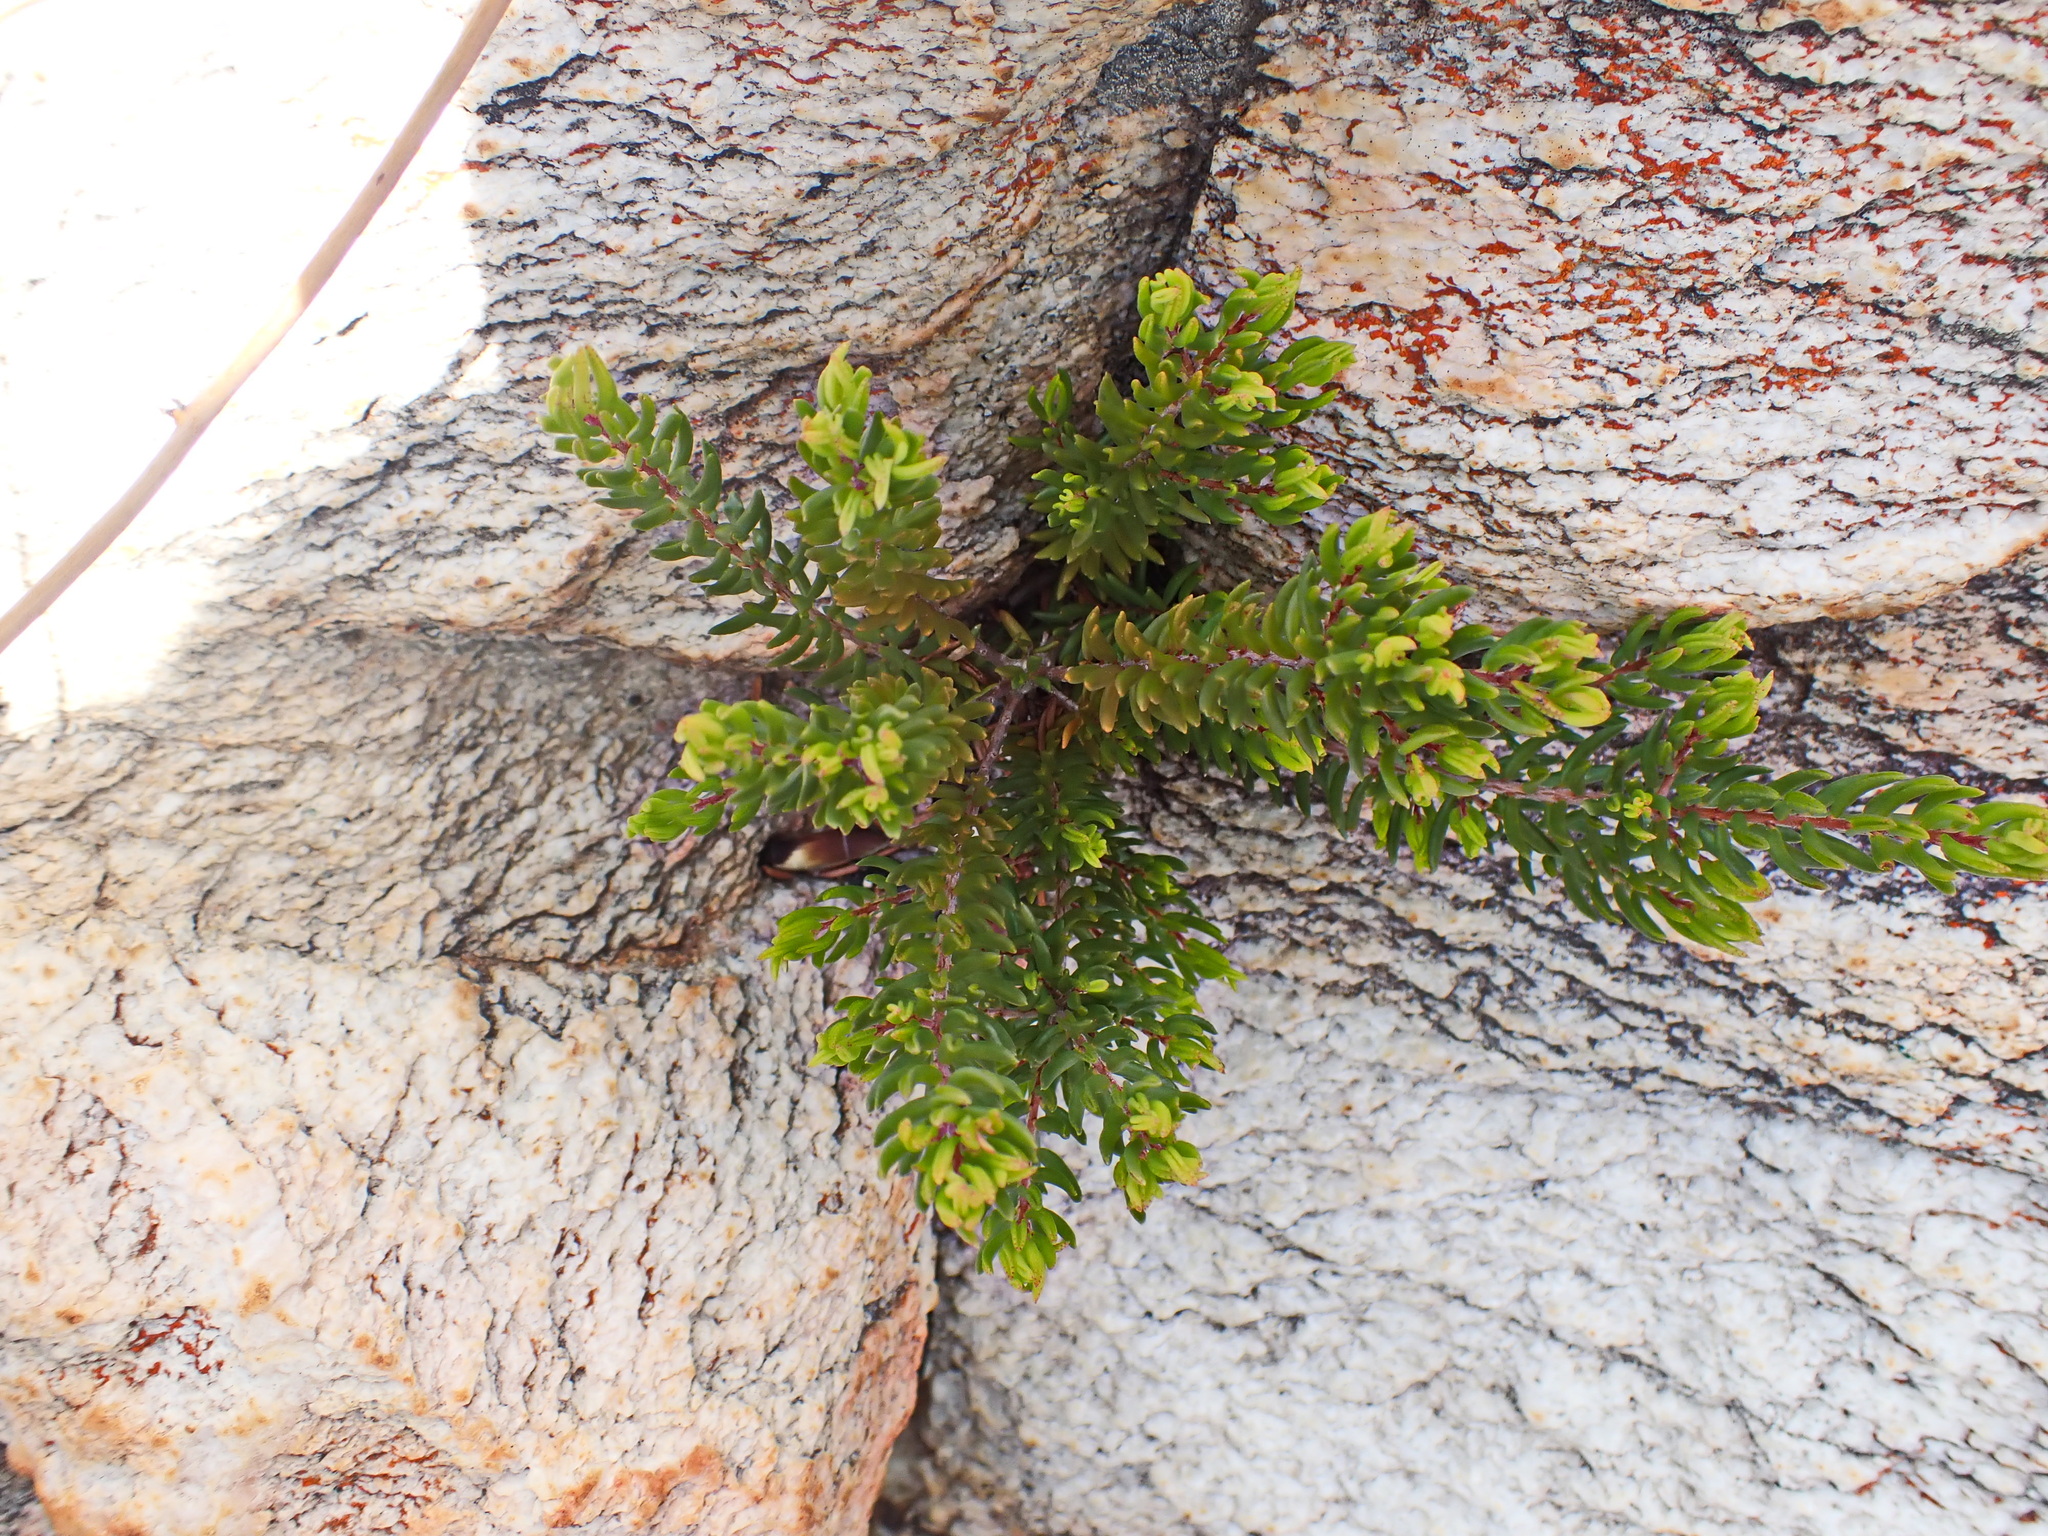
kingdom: Plantae
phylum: Tracheophyta
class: Magnoliopsida
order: Sapindales
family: Rutaceae
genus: Agathosma
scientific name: Agathosma mundtii
